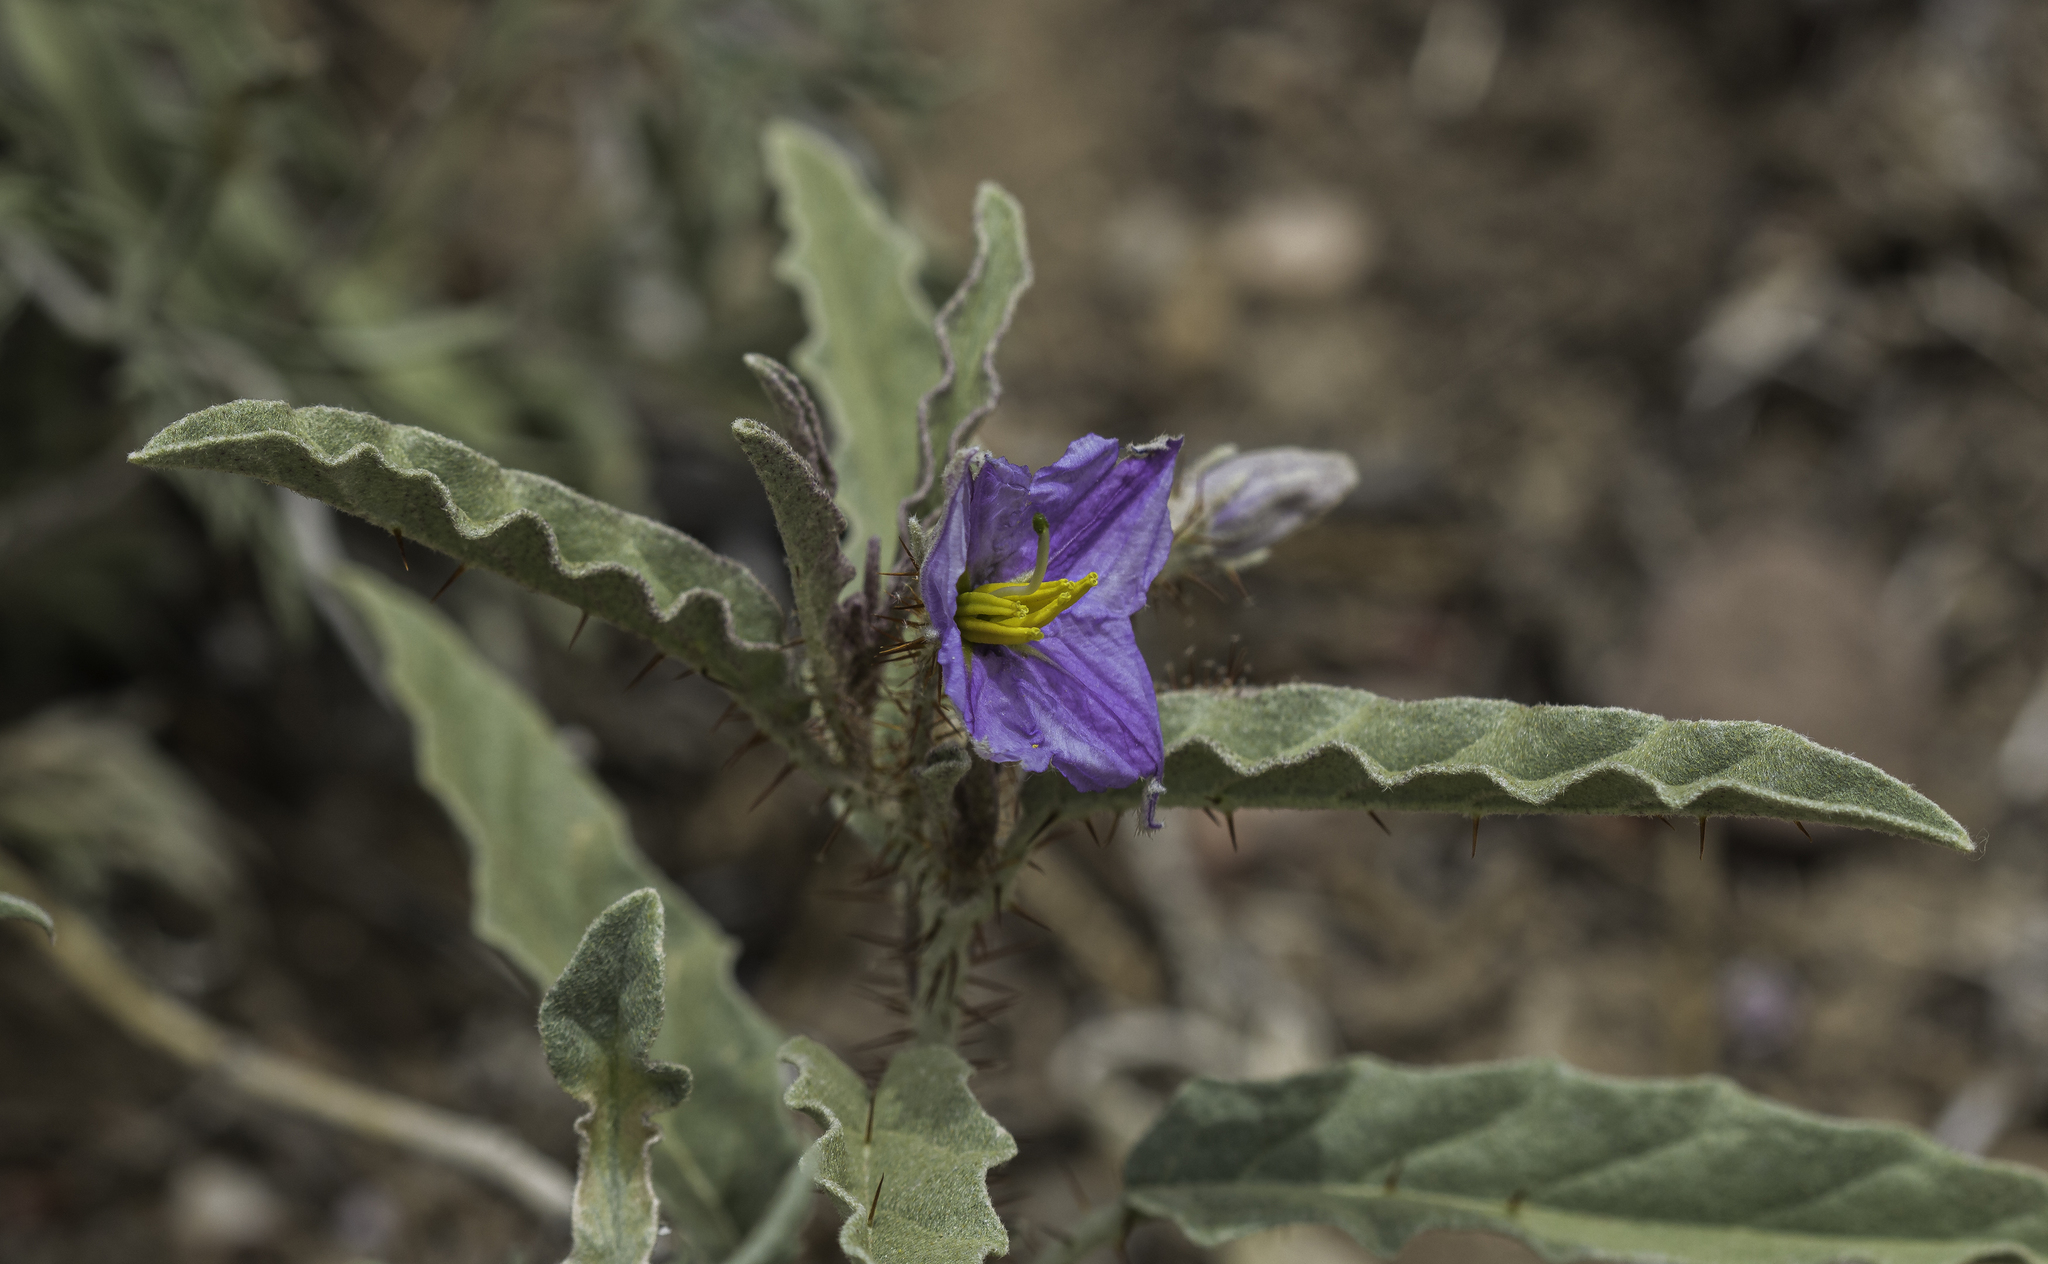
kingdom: Plantae
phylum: Tracheophyta
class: Magnoliopsida
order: Solanales
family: Solanaceae
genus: Solanum
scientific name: Solanum elaeagnifolium
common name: Silverleaf nightshade
